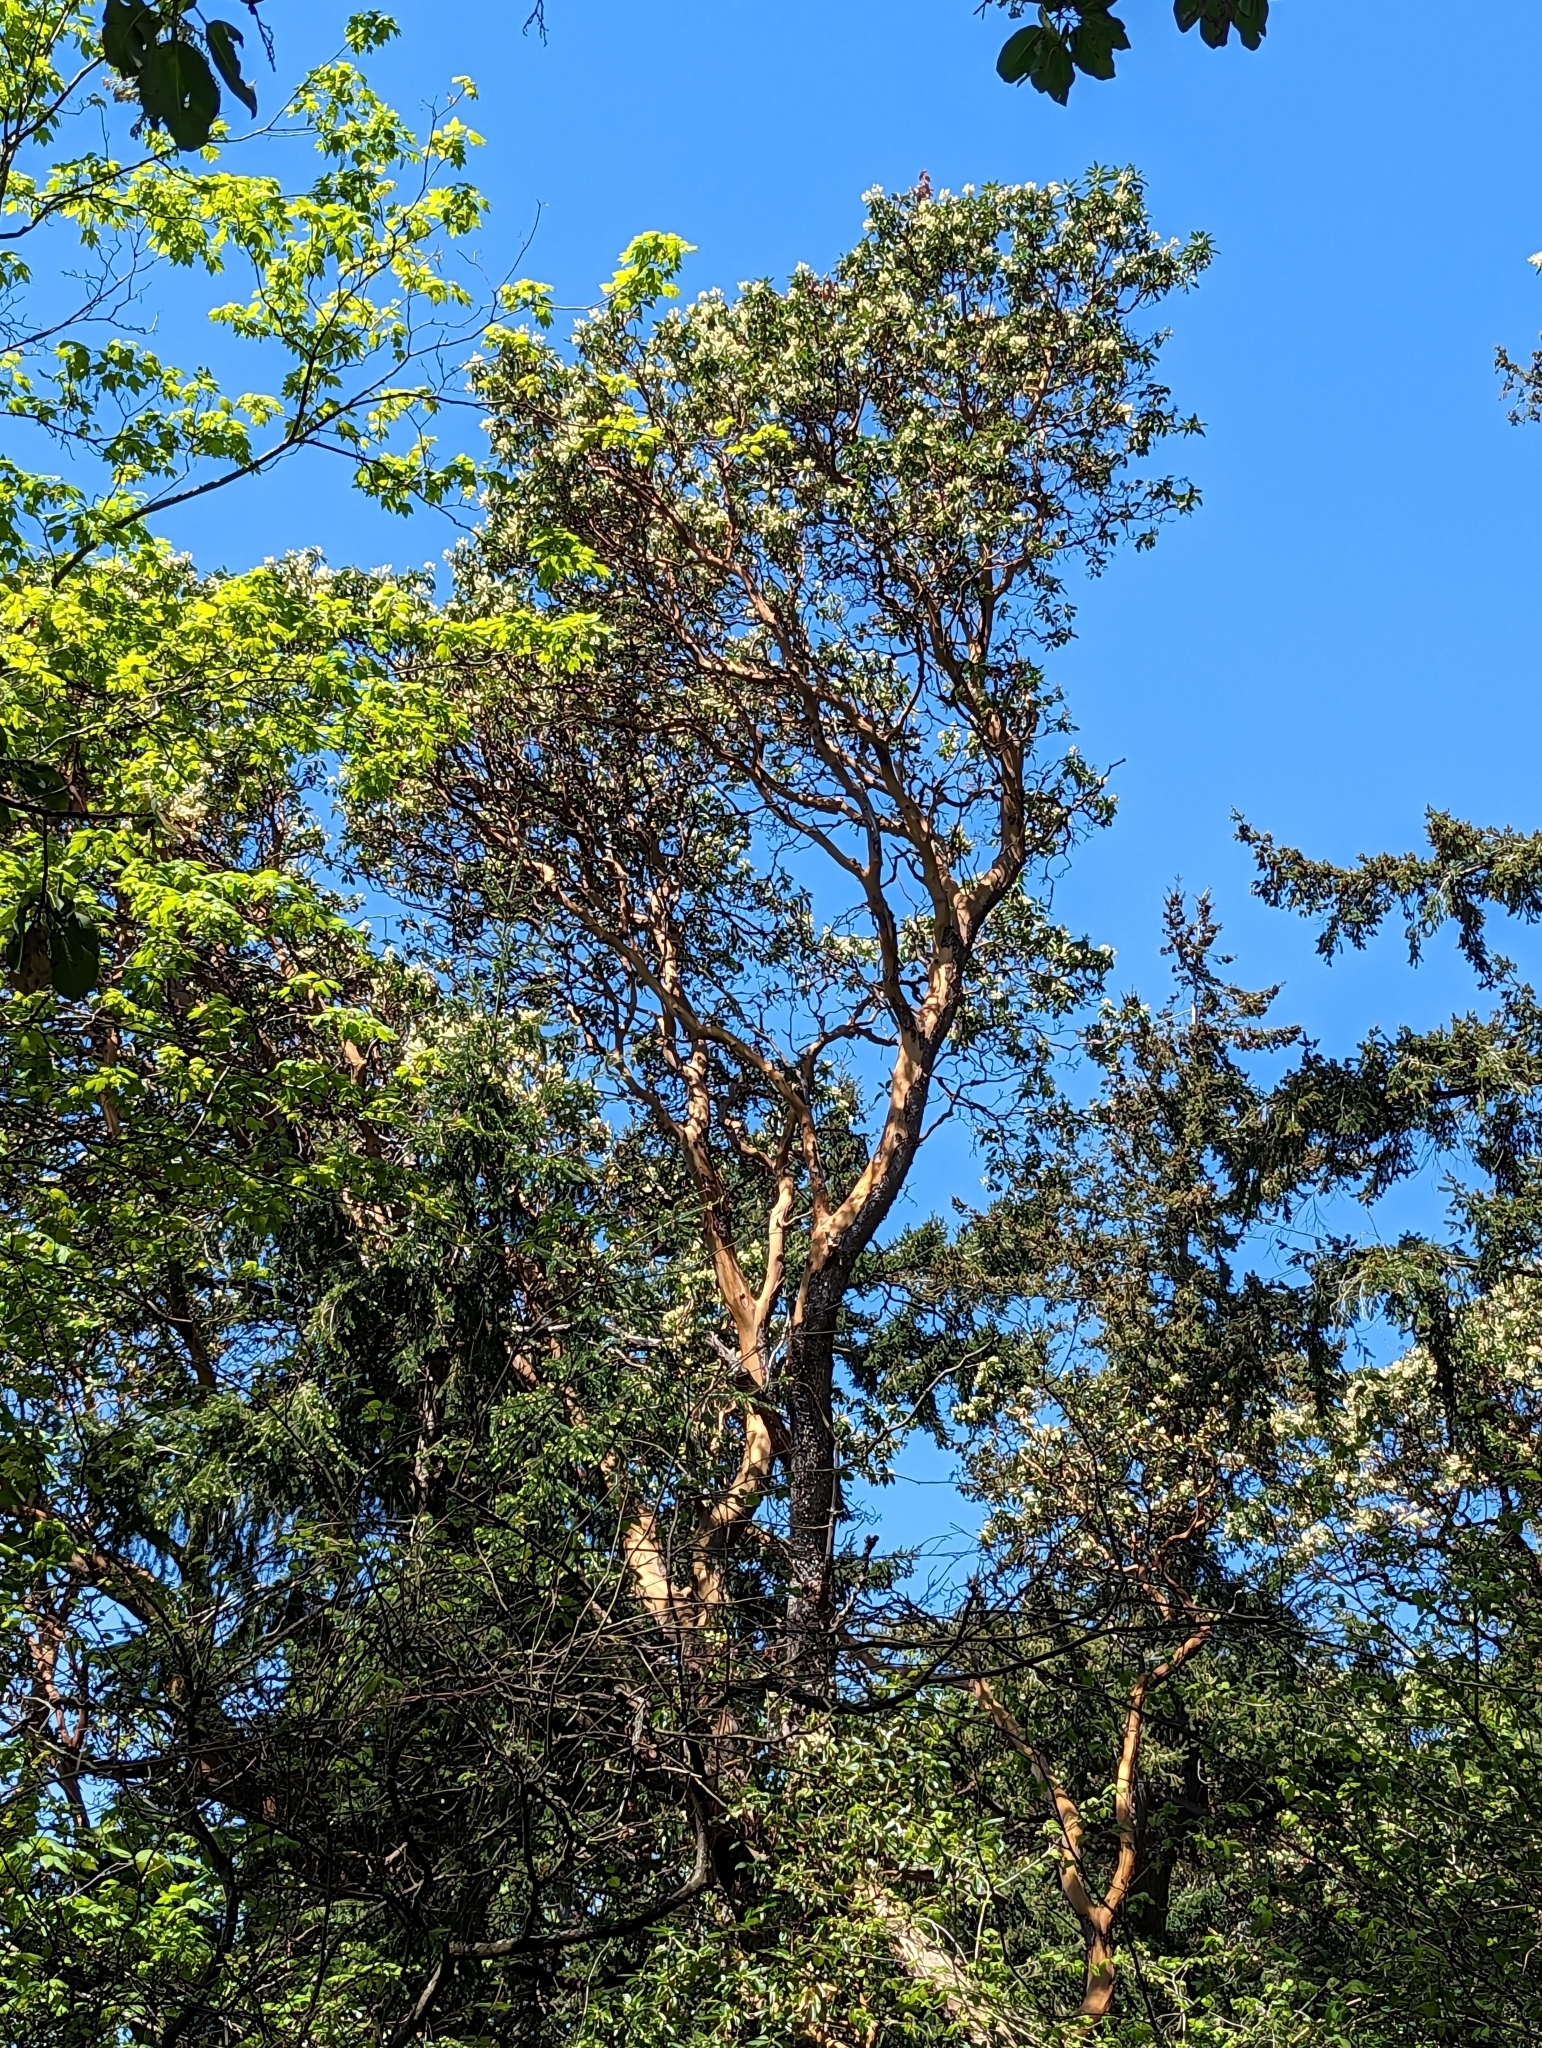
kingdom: Plantae
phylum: Tracheophyta
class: Magnoliopsida
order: Ericales
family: Ericaceae
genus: Arbutus
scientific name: Arbutus menziesii
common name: Pacific madrone
